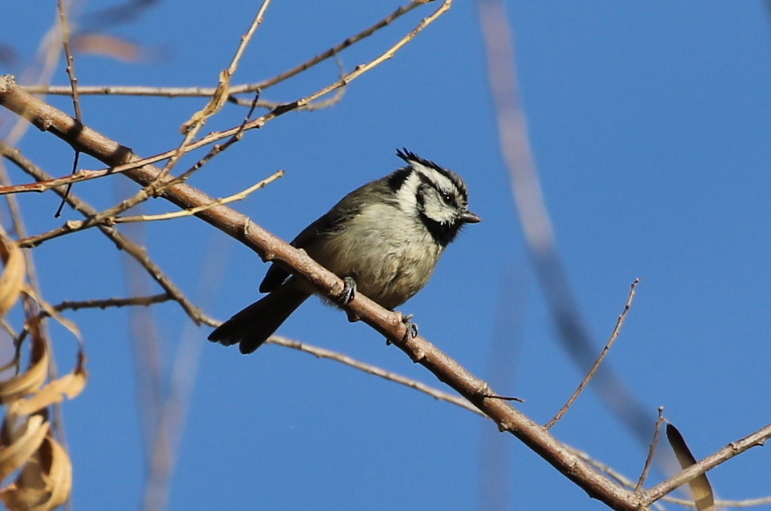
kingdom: Animalia
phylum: Chordata
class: Aves
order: Passeriformes
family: Paridae
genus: Baeolophus
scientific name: Baeolophus wollweberi
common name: Bridled titmouse
